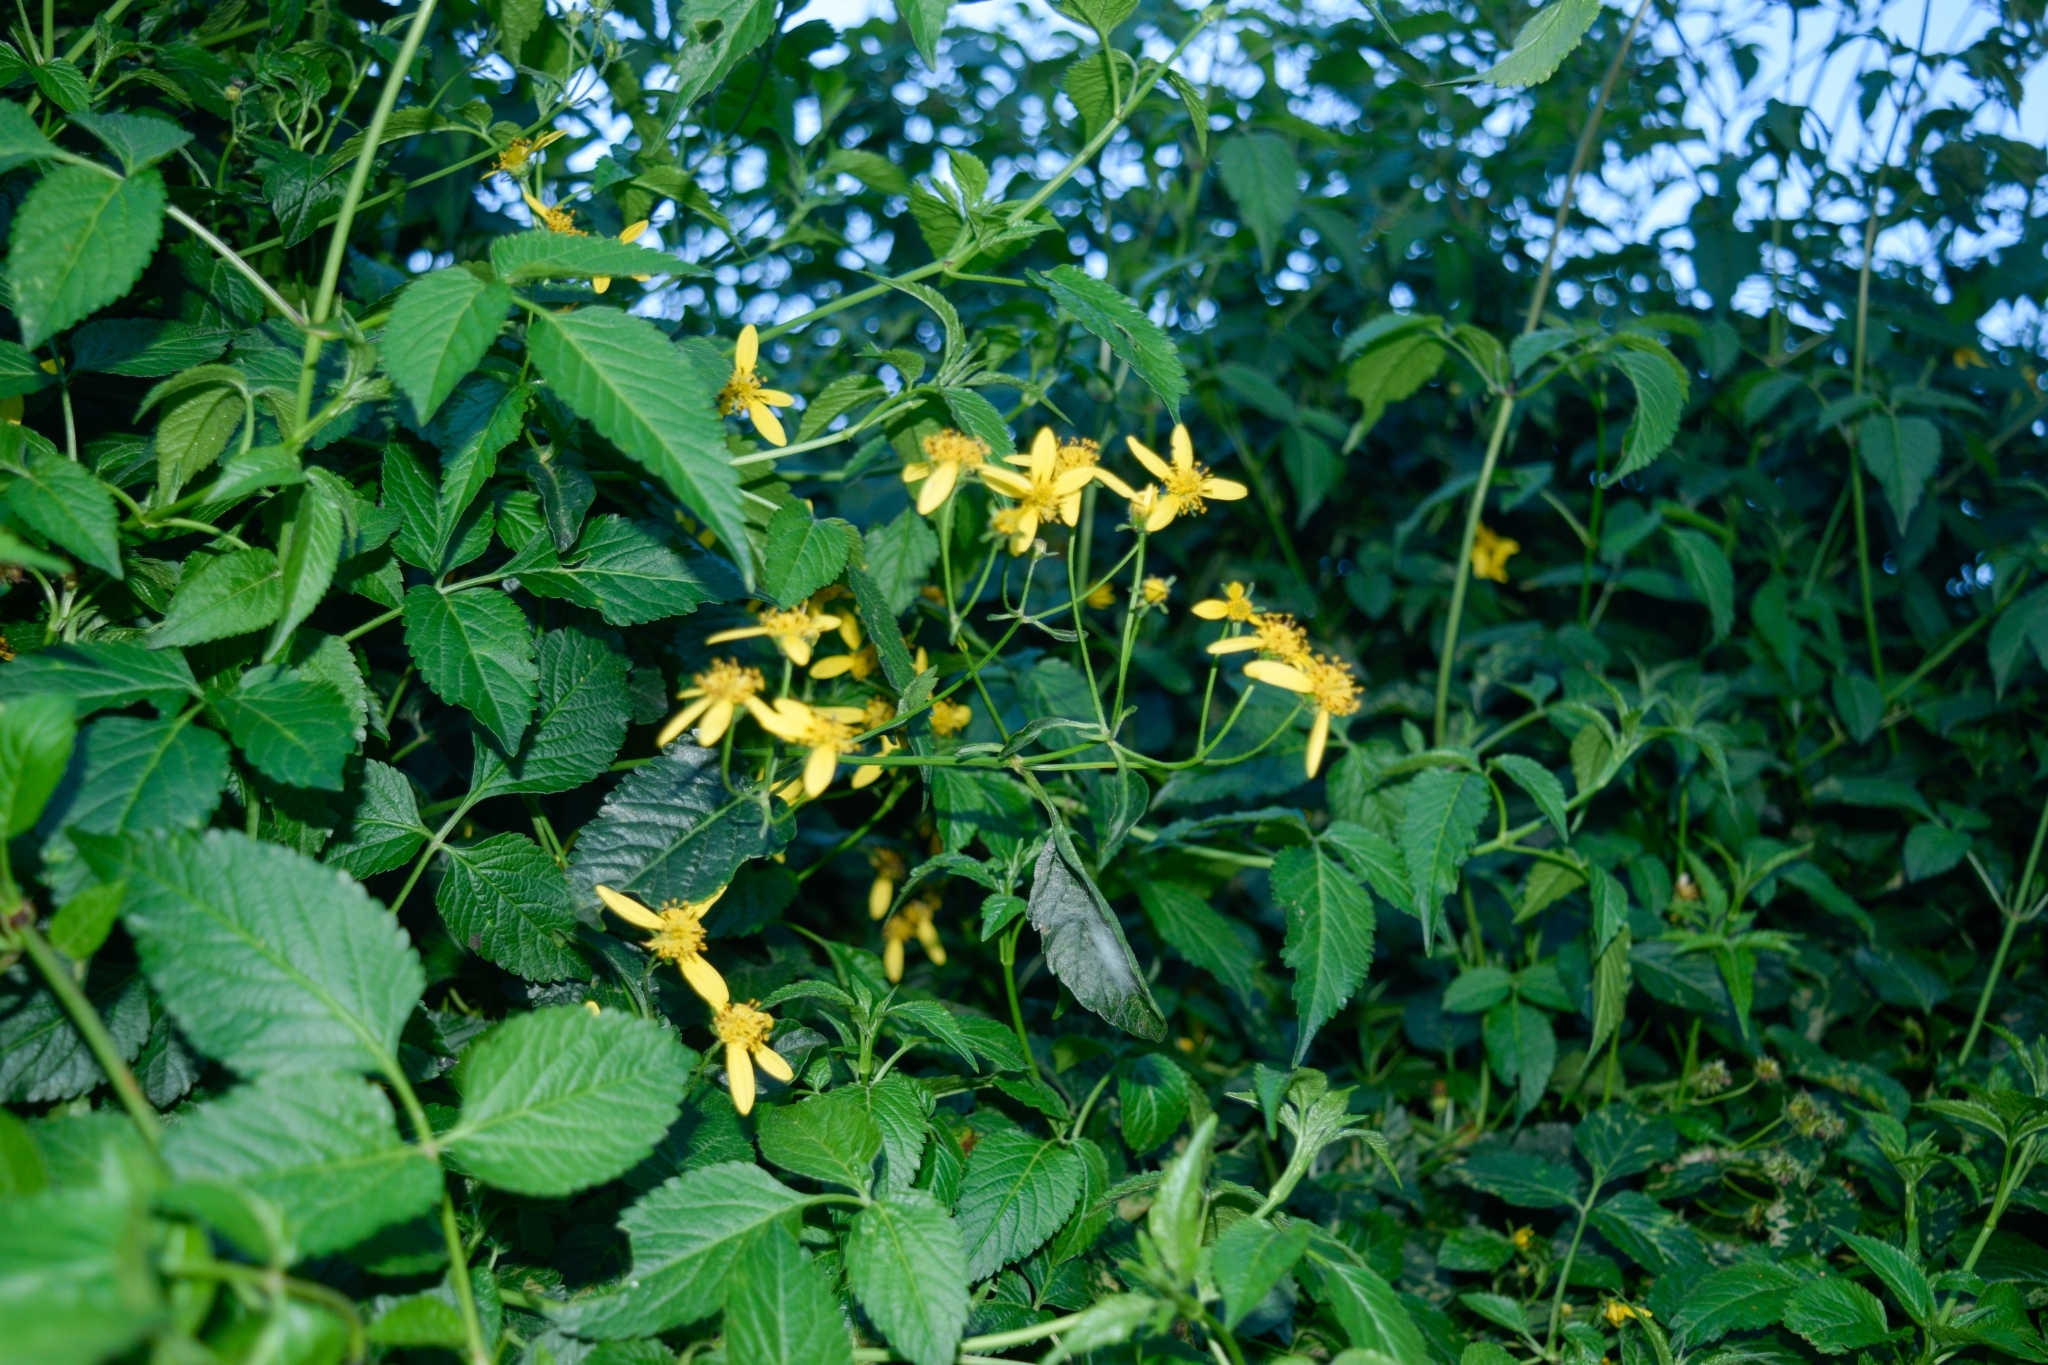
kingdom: Plantae
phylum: Tracheophyta
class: Magnoliopsida
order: Asterales
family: Asteraceae
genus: Bidens
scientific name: Bidens reptans
